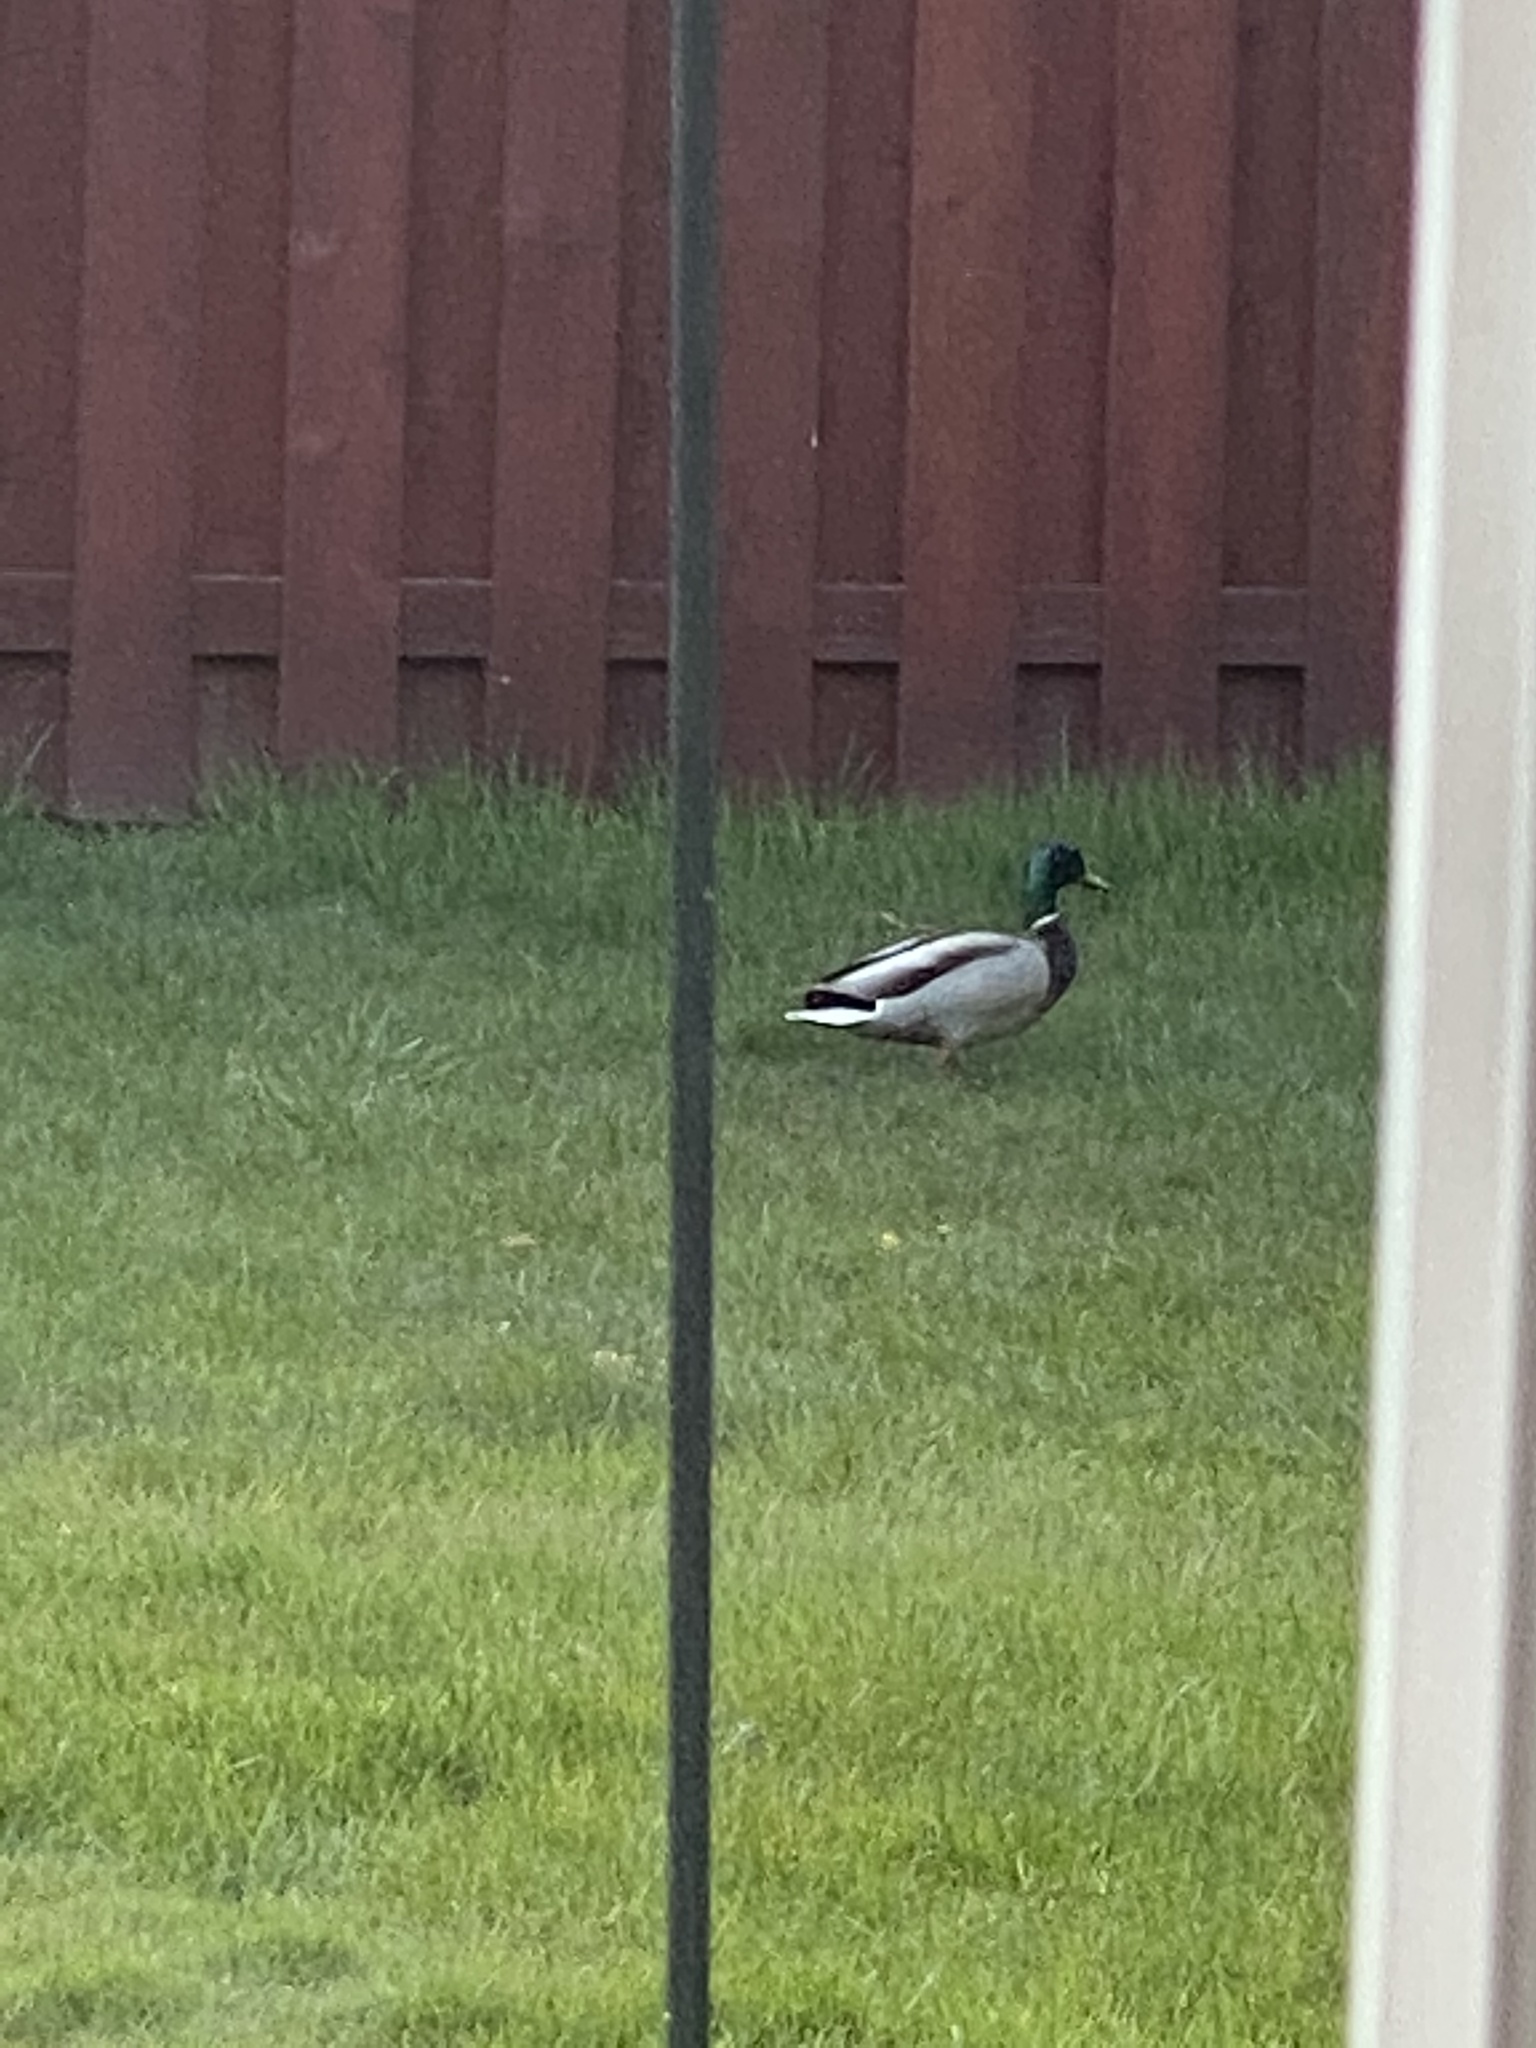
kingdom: Animalia
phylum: Chordata
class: Aves
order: Anseriformes
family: Anatidae
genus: Anas
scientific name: Anas platyrhynchos
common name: Mallard
